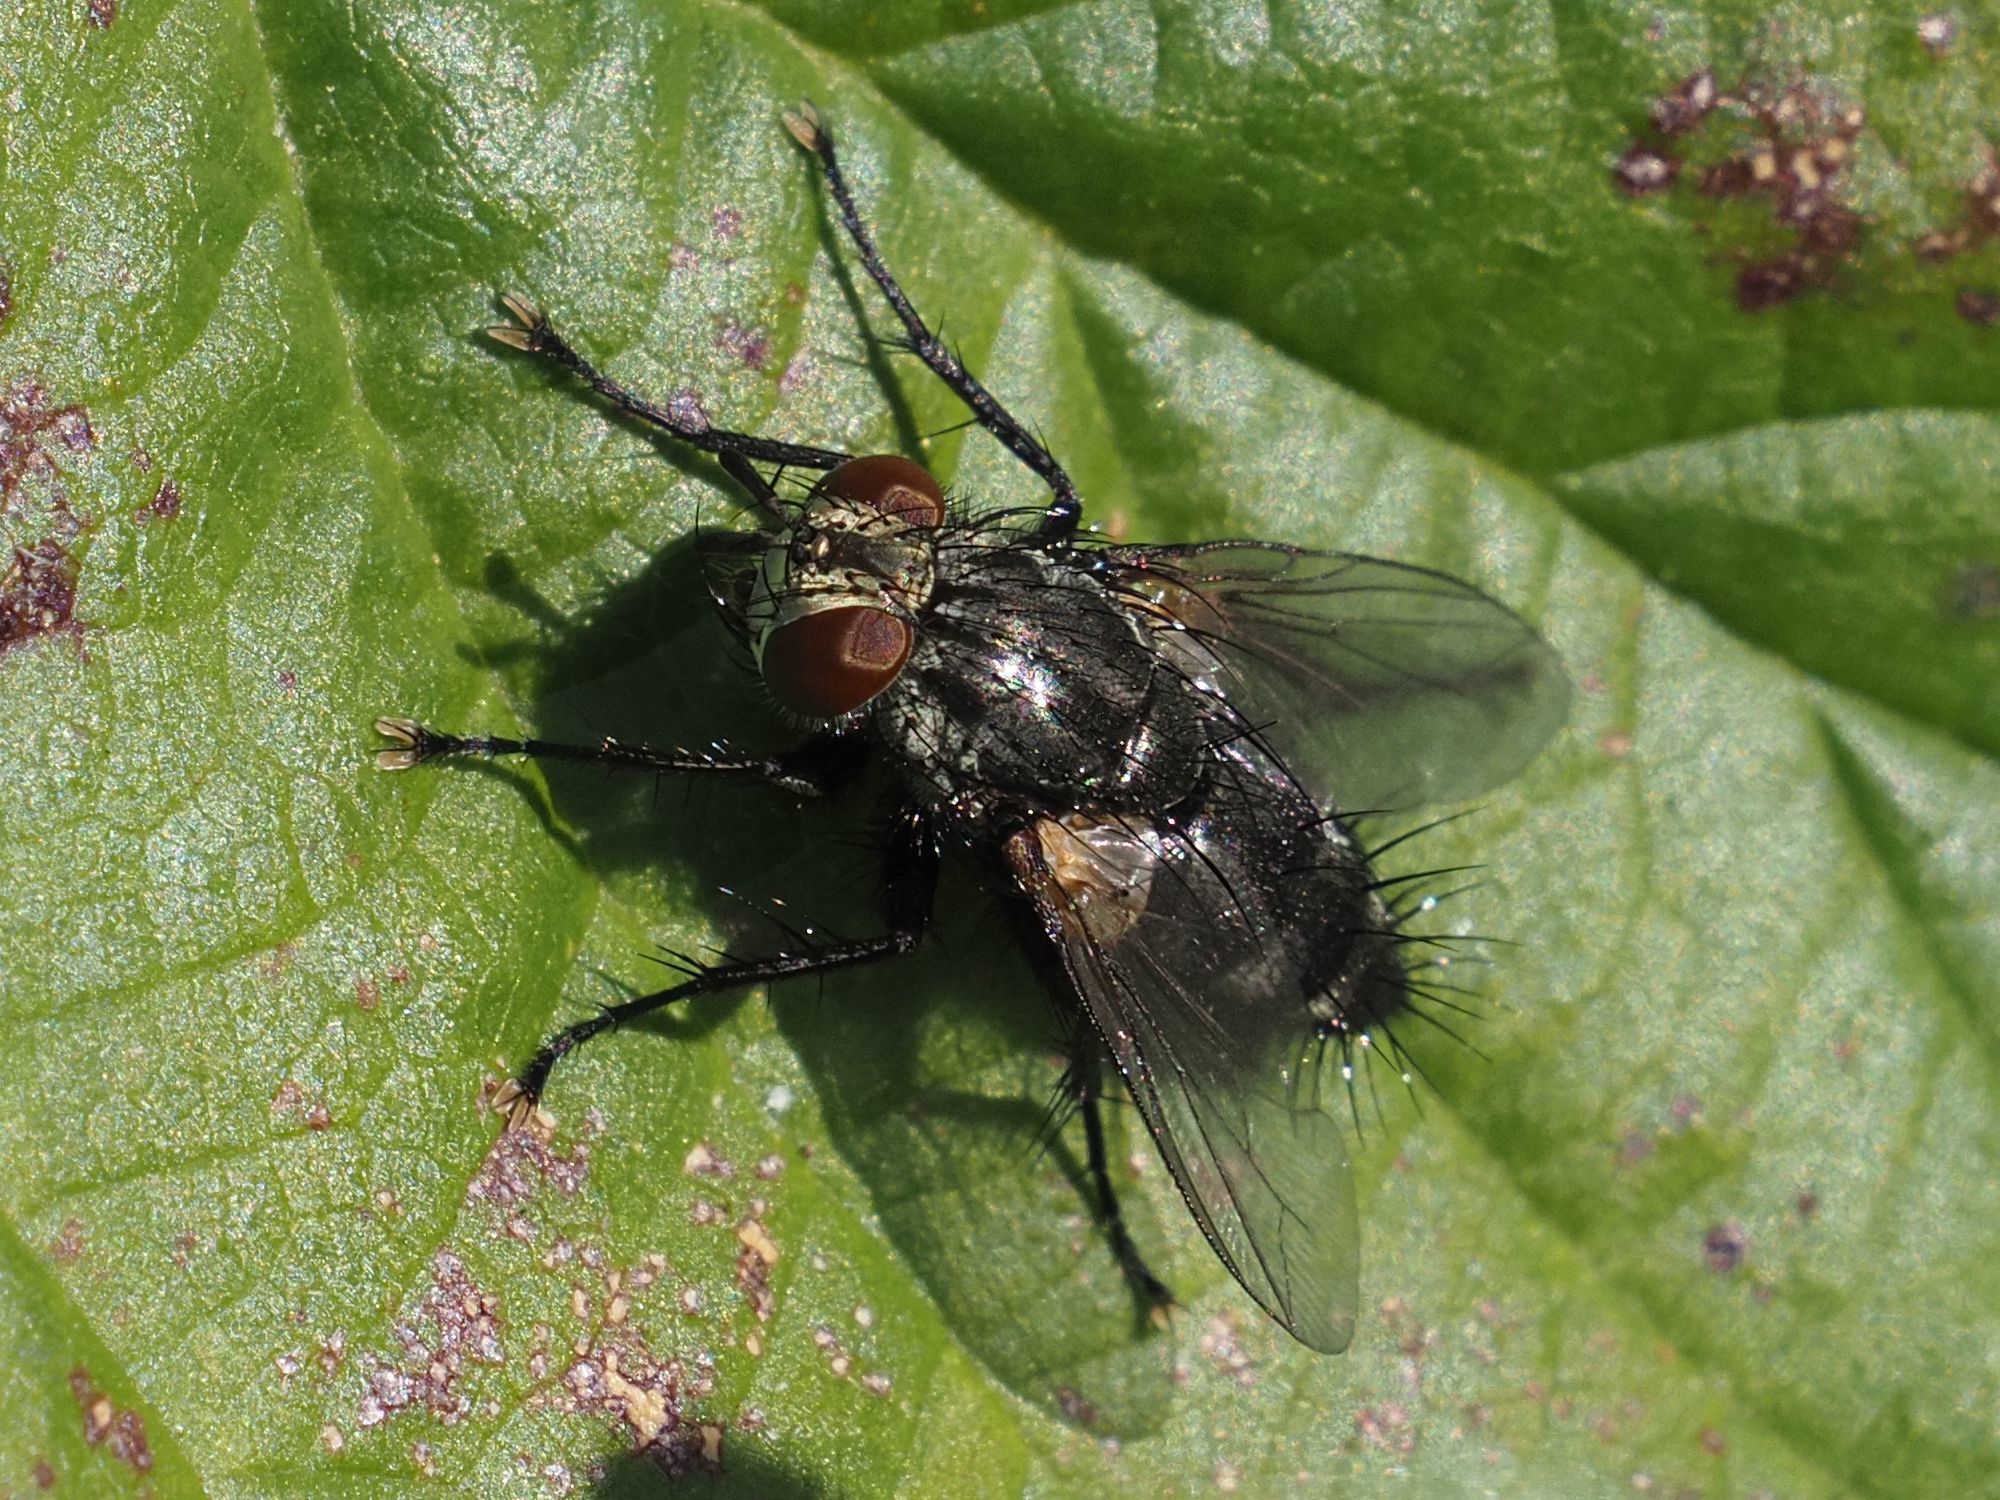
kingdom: Animalia
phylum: Arthropoda
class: Insecta
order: Diptera
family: Tachinidae
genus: Voria
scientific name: Voria ruralis
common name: Parasitic fly
